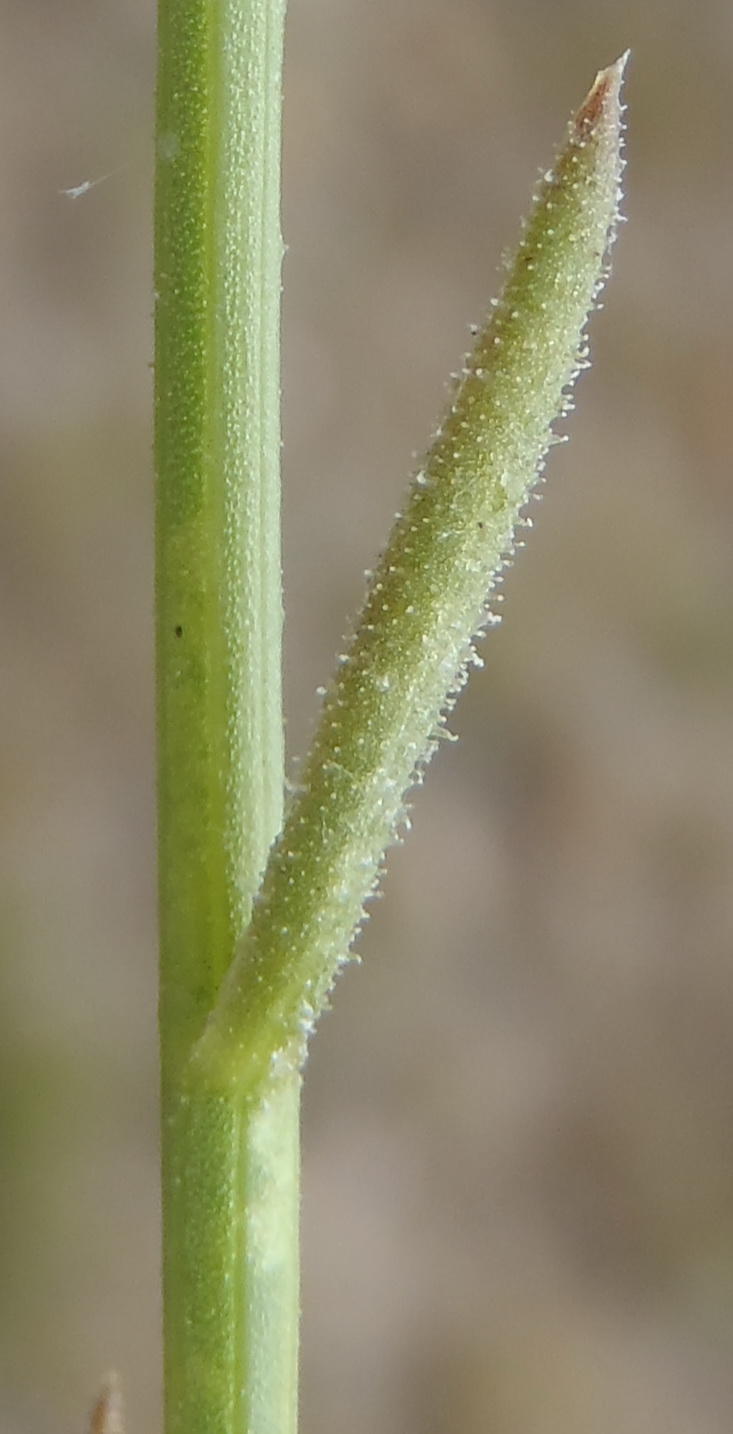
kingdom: Plantae
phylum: Tracheophyta
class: Magnoliopsida
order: Asterales
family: Asteraceae
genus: Osteospermum
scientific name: Osteospermum bolusii
